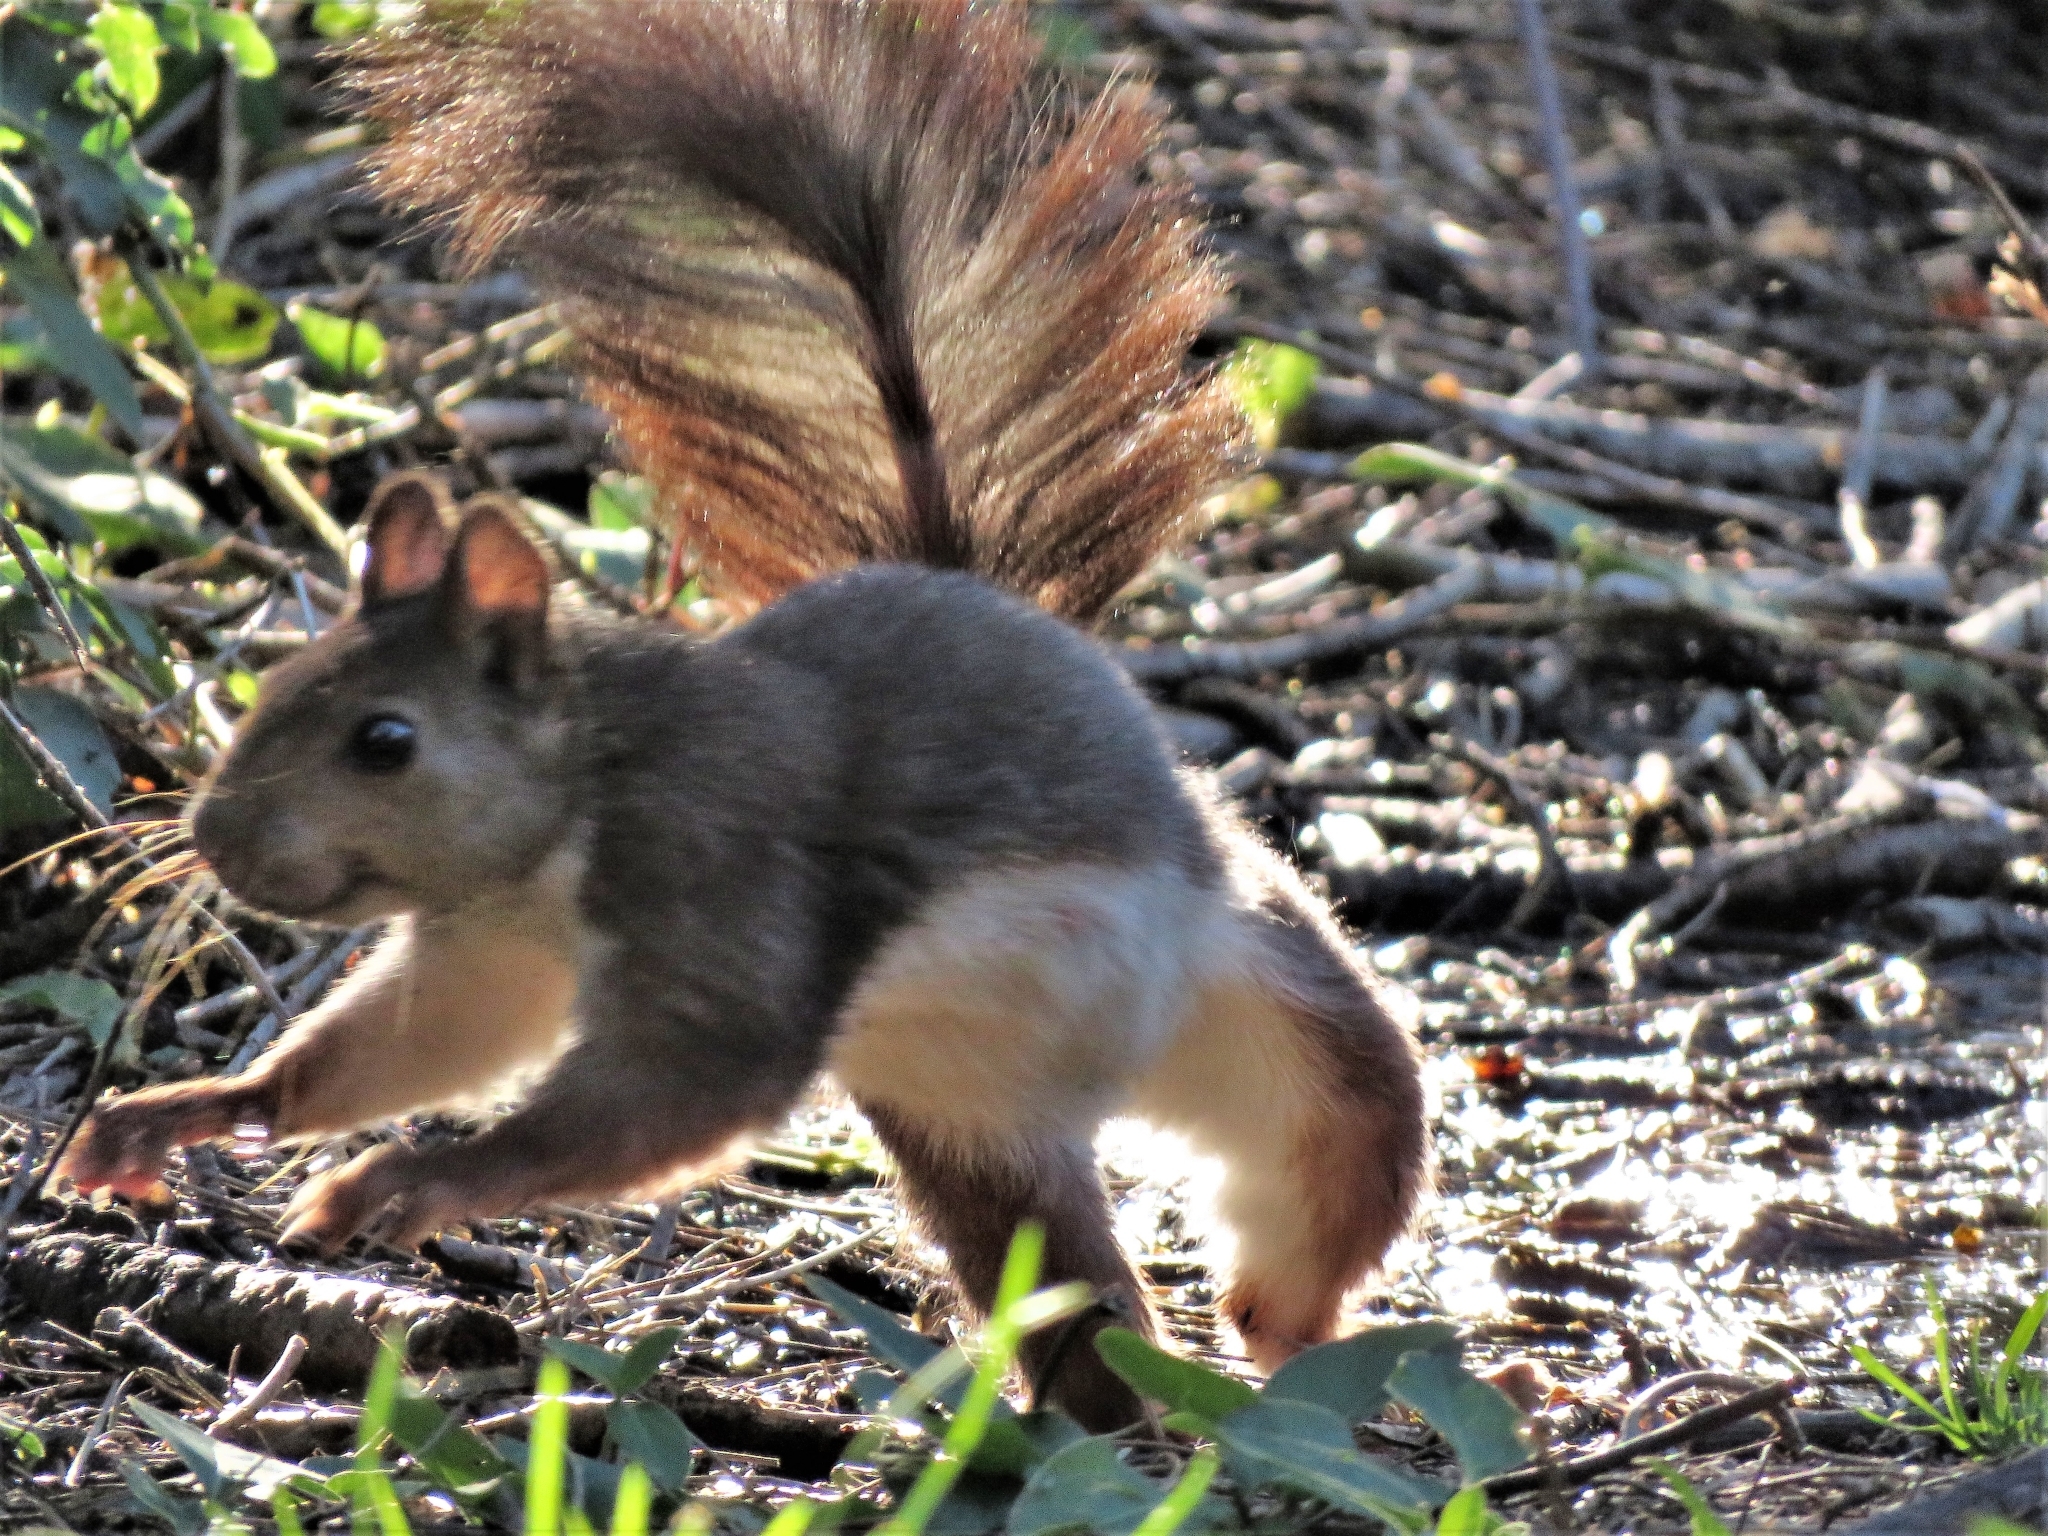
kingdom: Animalia
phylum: Chordata
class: Mammalia
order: Rodentia
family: Sciuridae
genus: Sciurus
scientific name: Sciurus vulgaris
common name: Eurasian red squirrel
